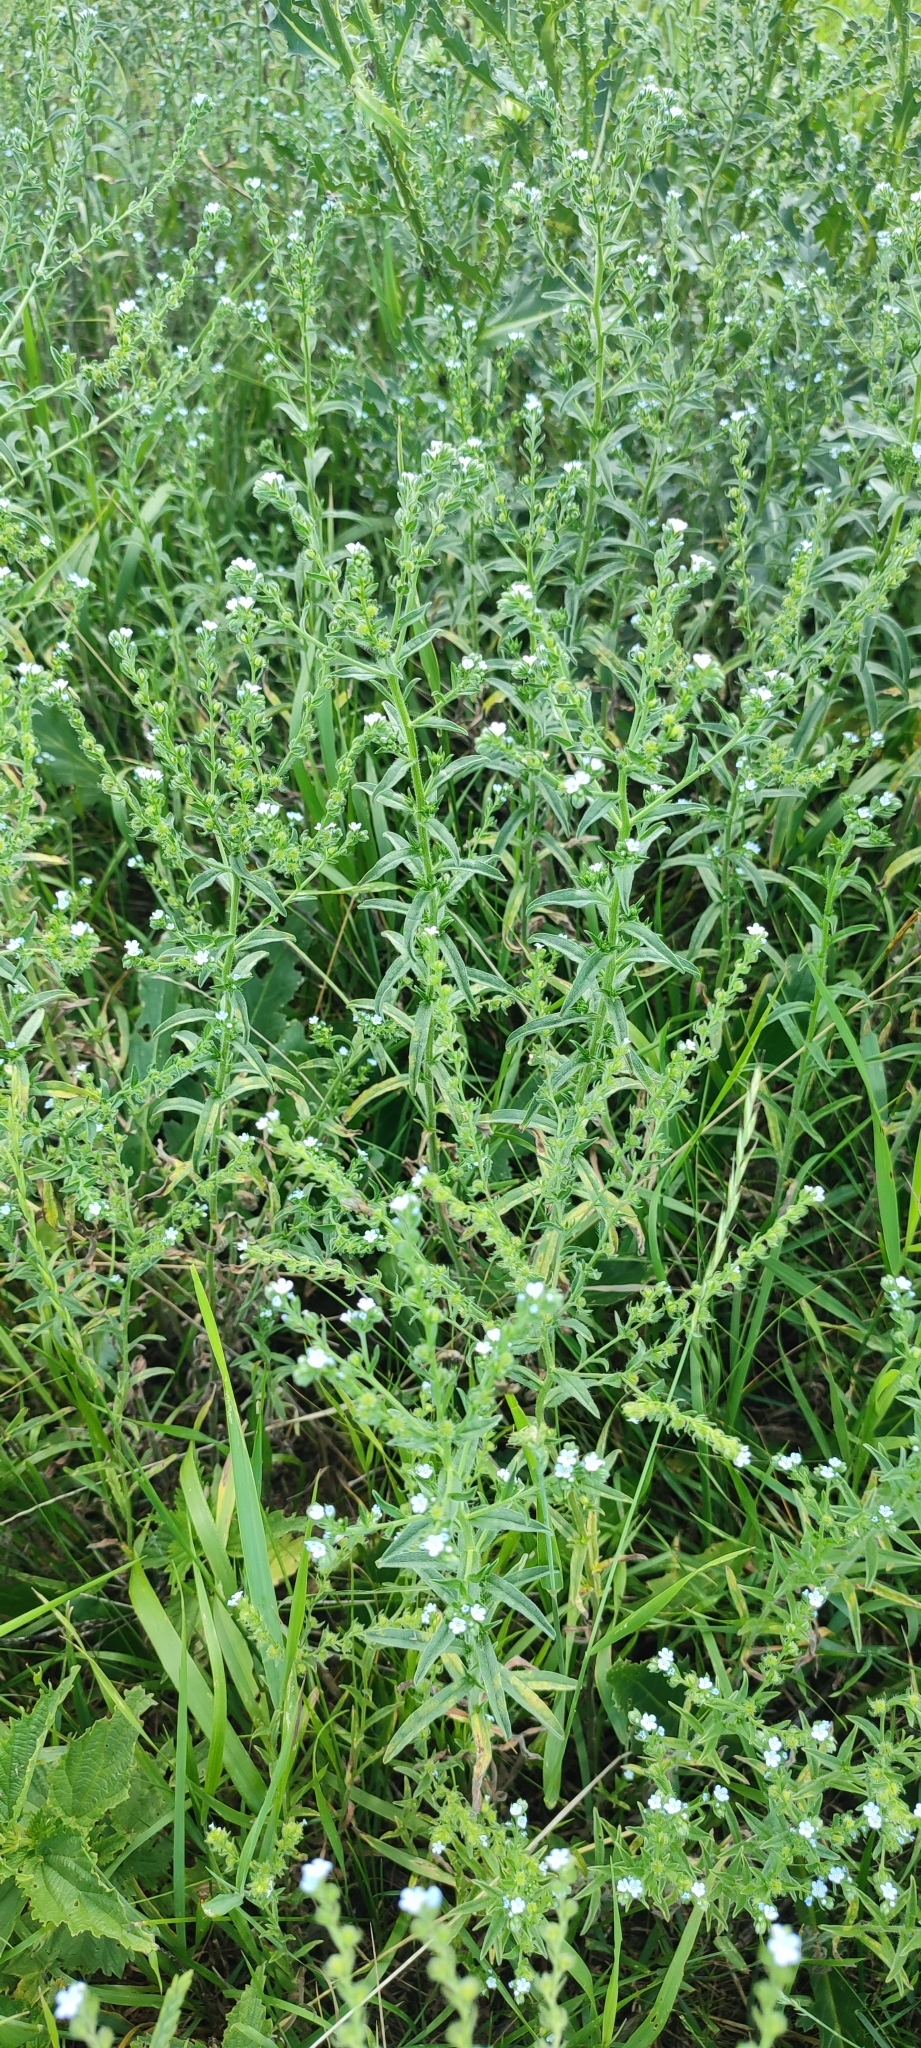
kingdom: Plantae
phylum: Tracheophyta
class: Magnoliopsida
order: Boraginales
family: Boraginaceae
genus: Lappula
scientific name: Lappula squarrosa
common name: European stickseed
